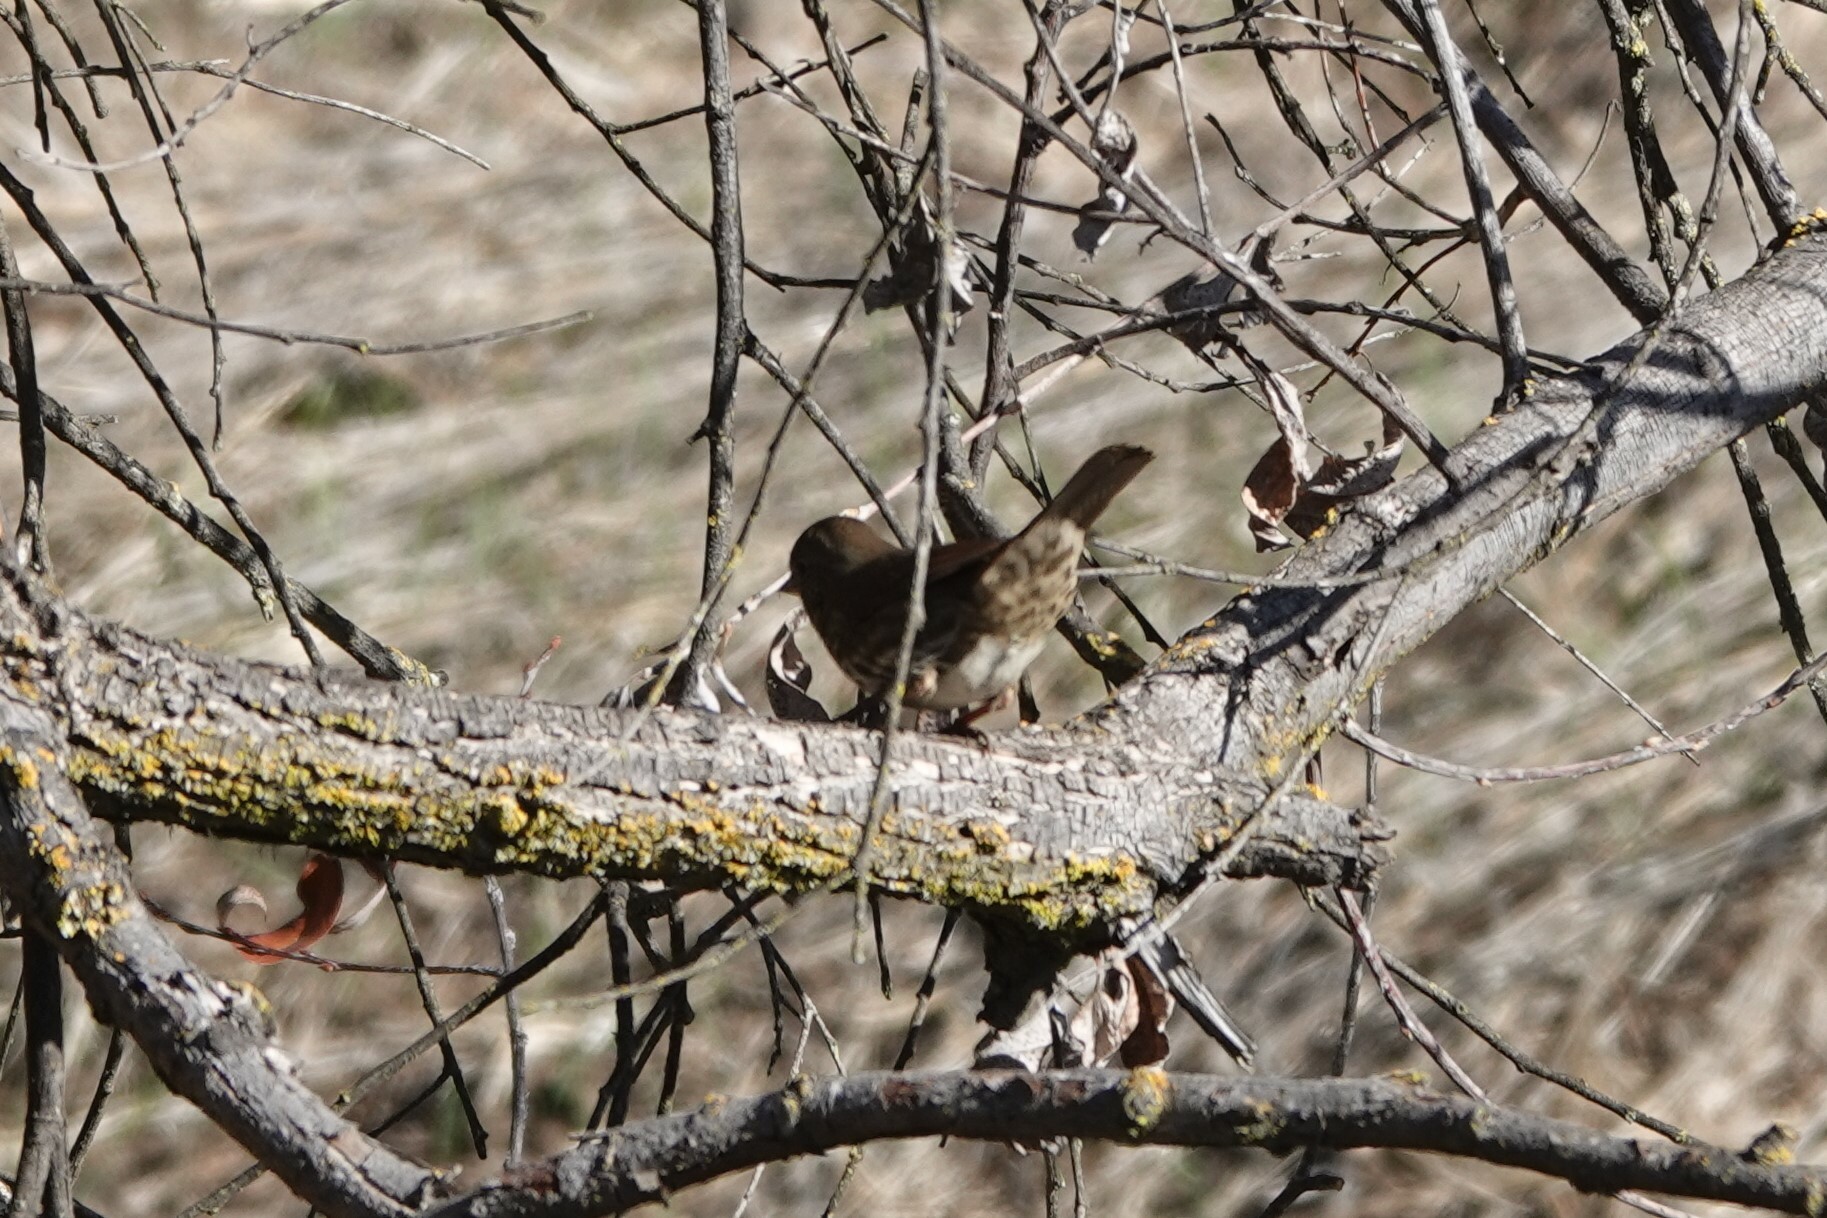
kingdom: Animalia
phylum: Chordata
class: Aves
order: Passeriformes
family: Passerellidae
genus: Passerella
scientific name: Passerella iliaca
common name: Fox sparrow
